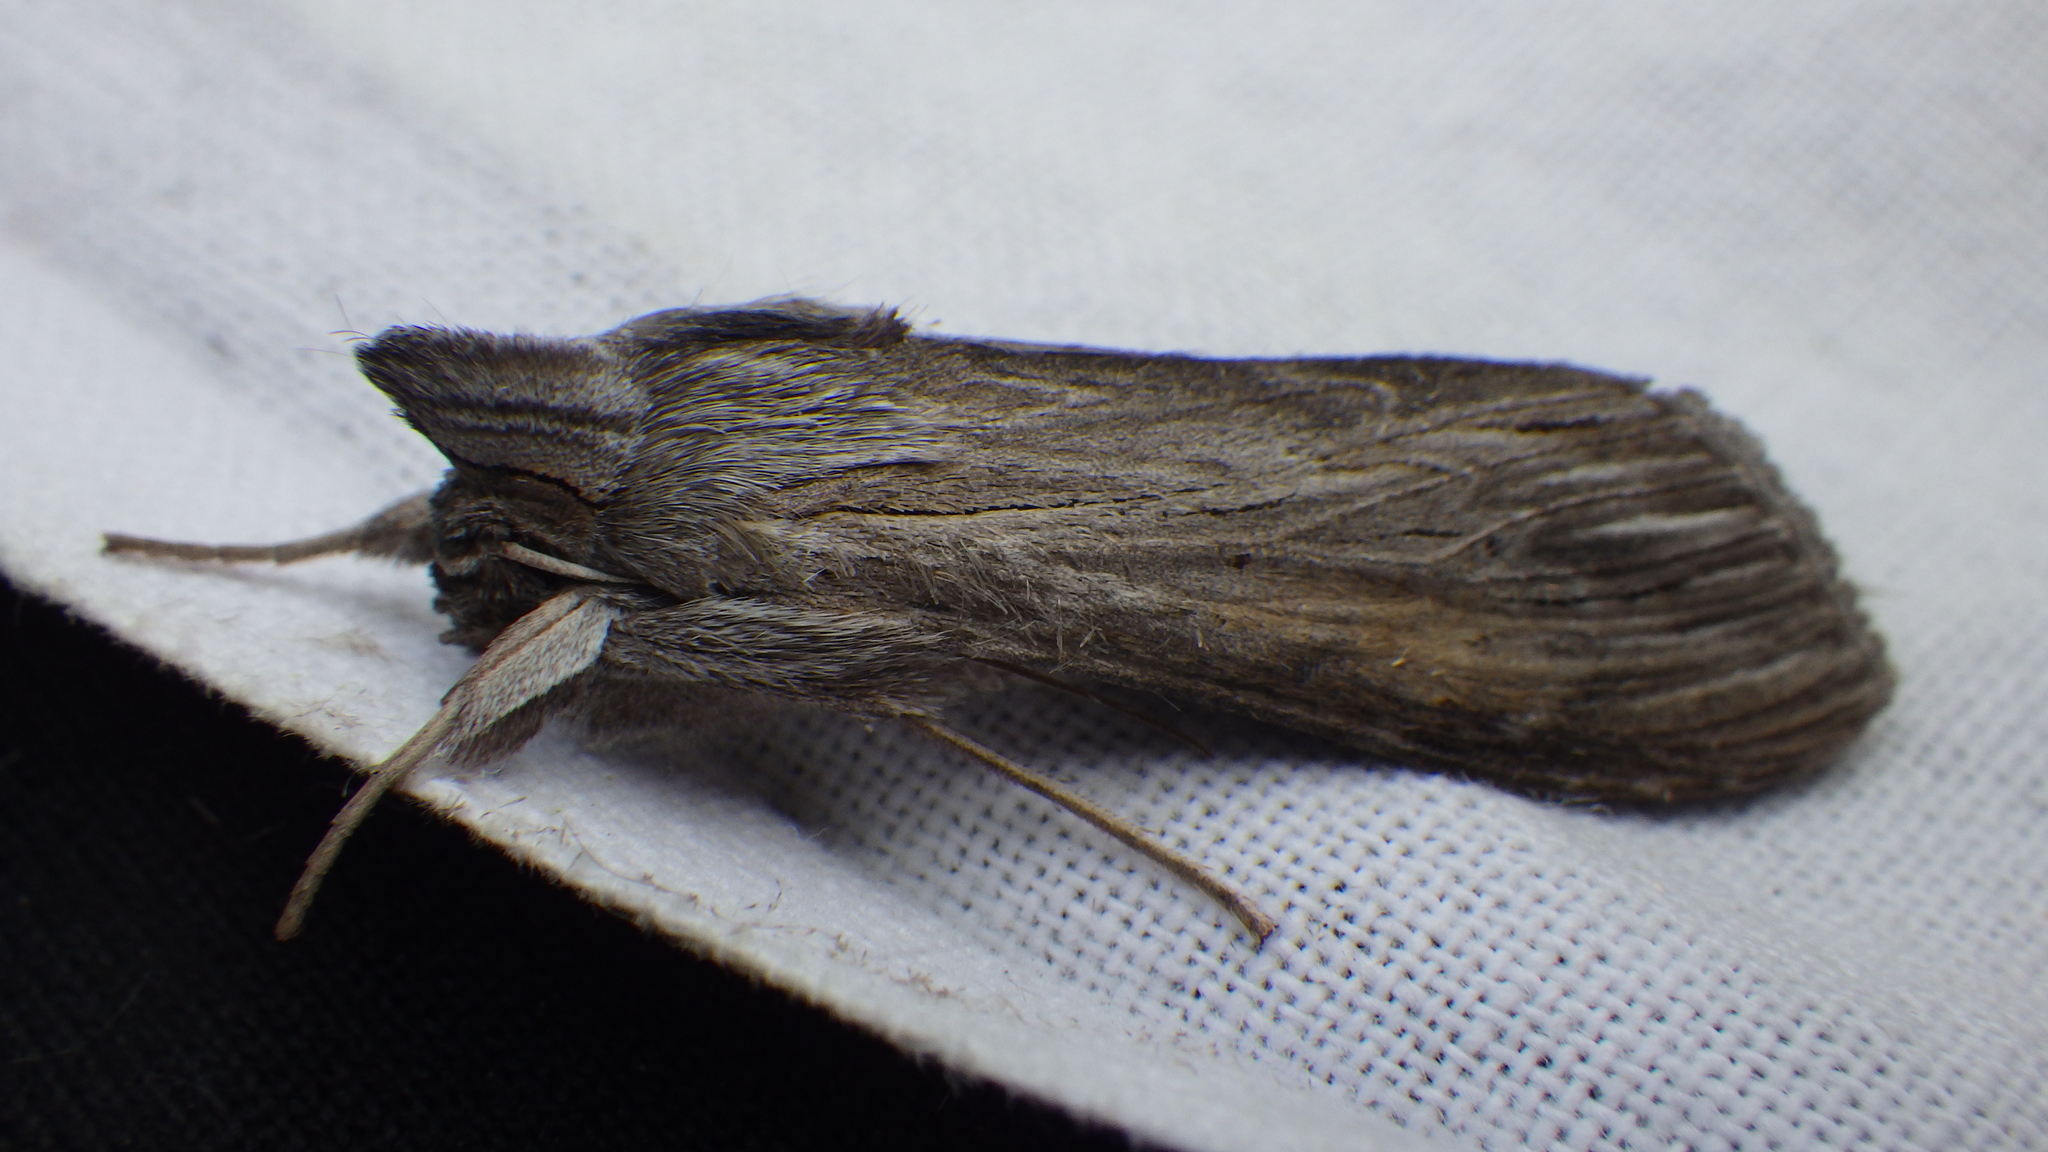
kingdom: Animalia
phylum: Arthropoda
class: Insecta
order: Lepidoptera
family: Noctuidae
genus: Cucullia
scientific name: Cucullia umbratica
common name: Shark
